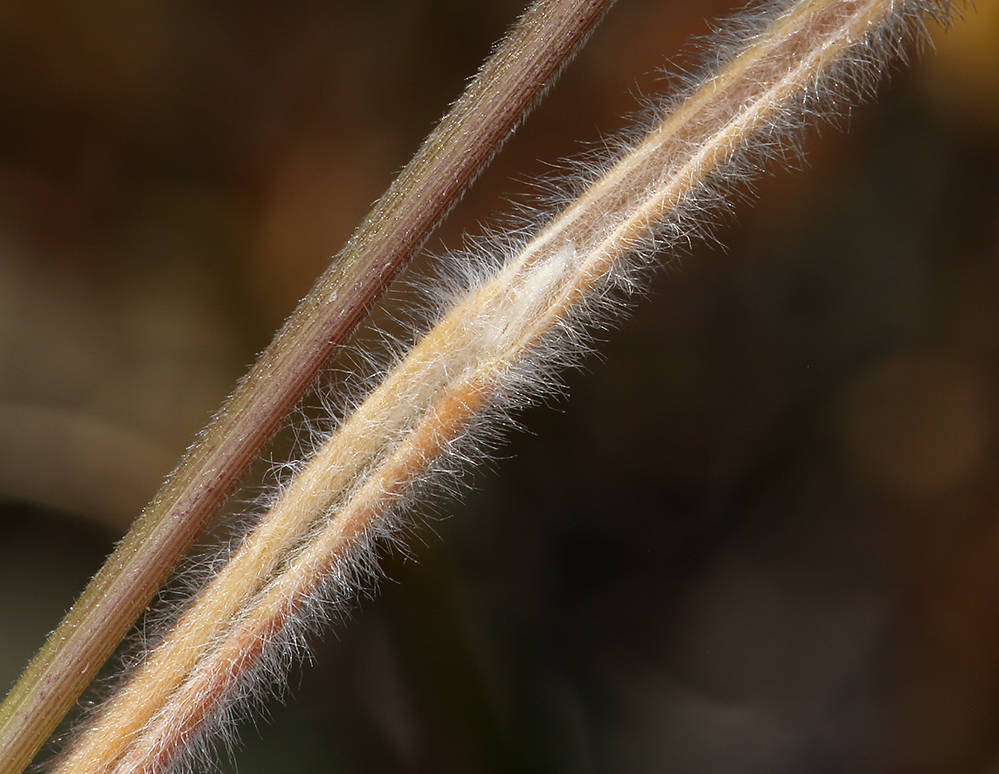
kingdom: Plantae
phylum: Tracheophyta
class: Liliopsida
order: Poales
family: Poaceae
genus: Koeleria
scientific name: Koeleria macrantha
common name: Crested hair-grass
